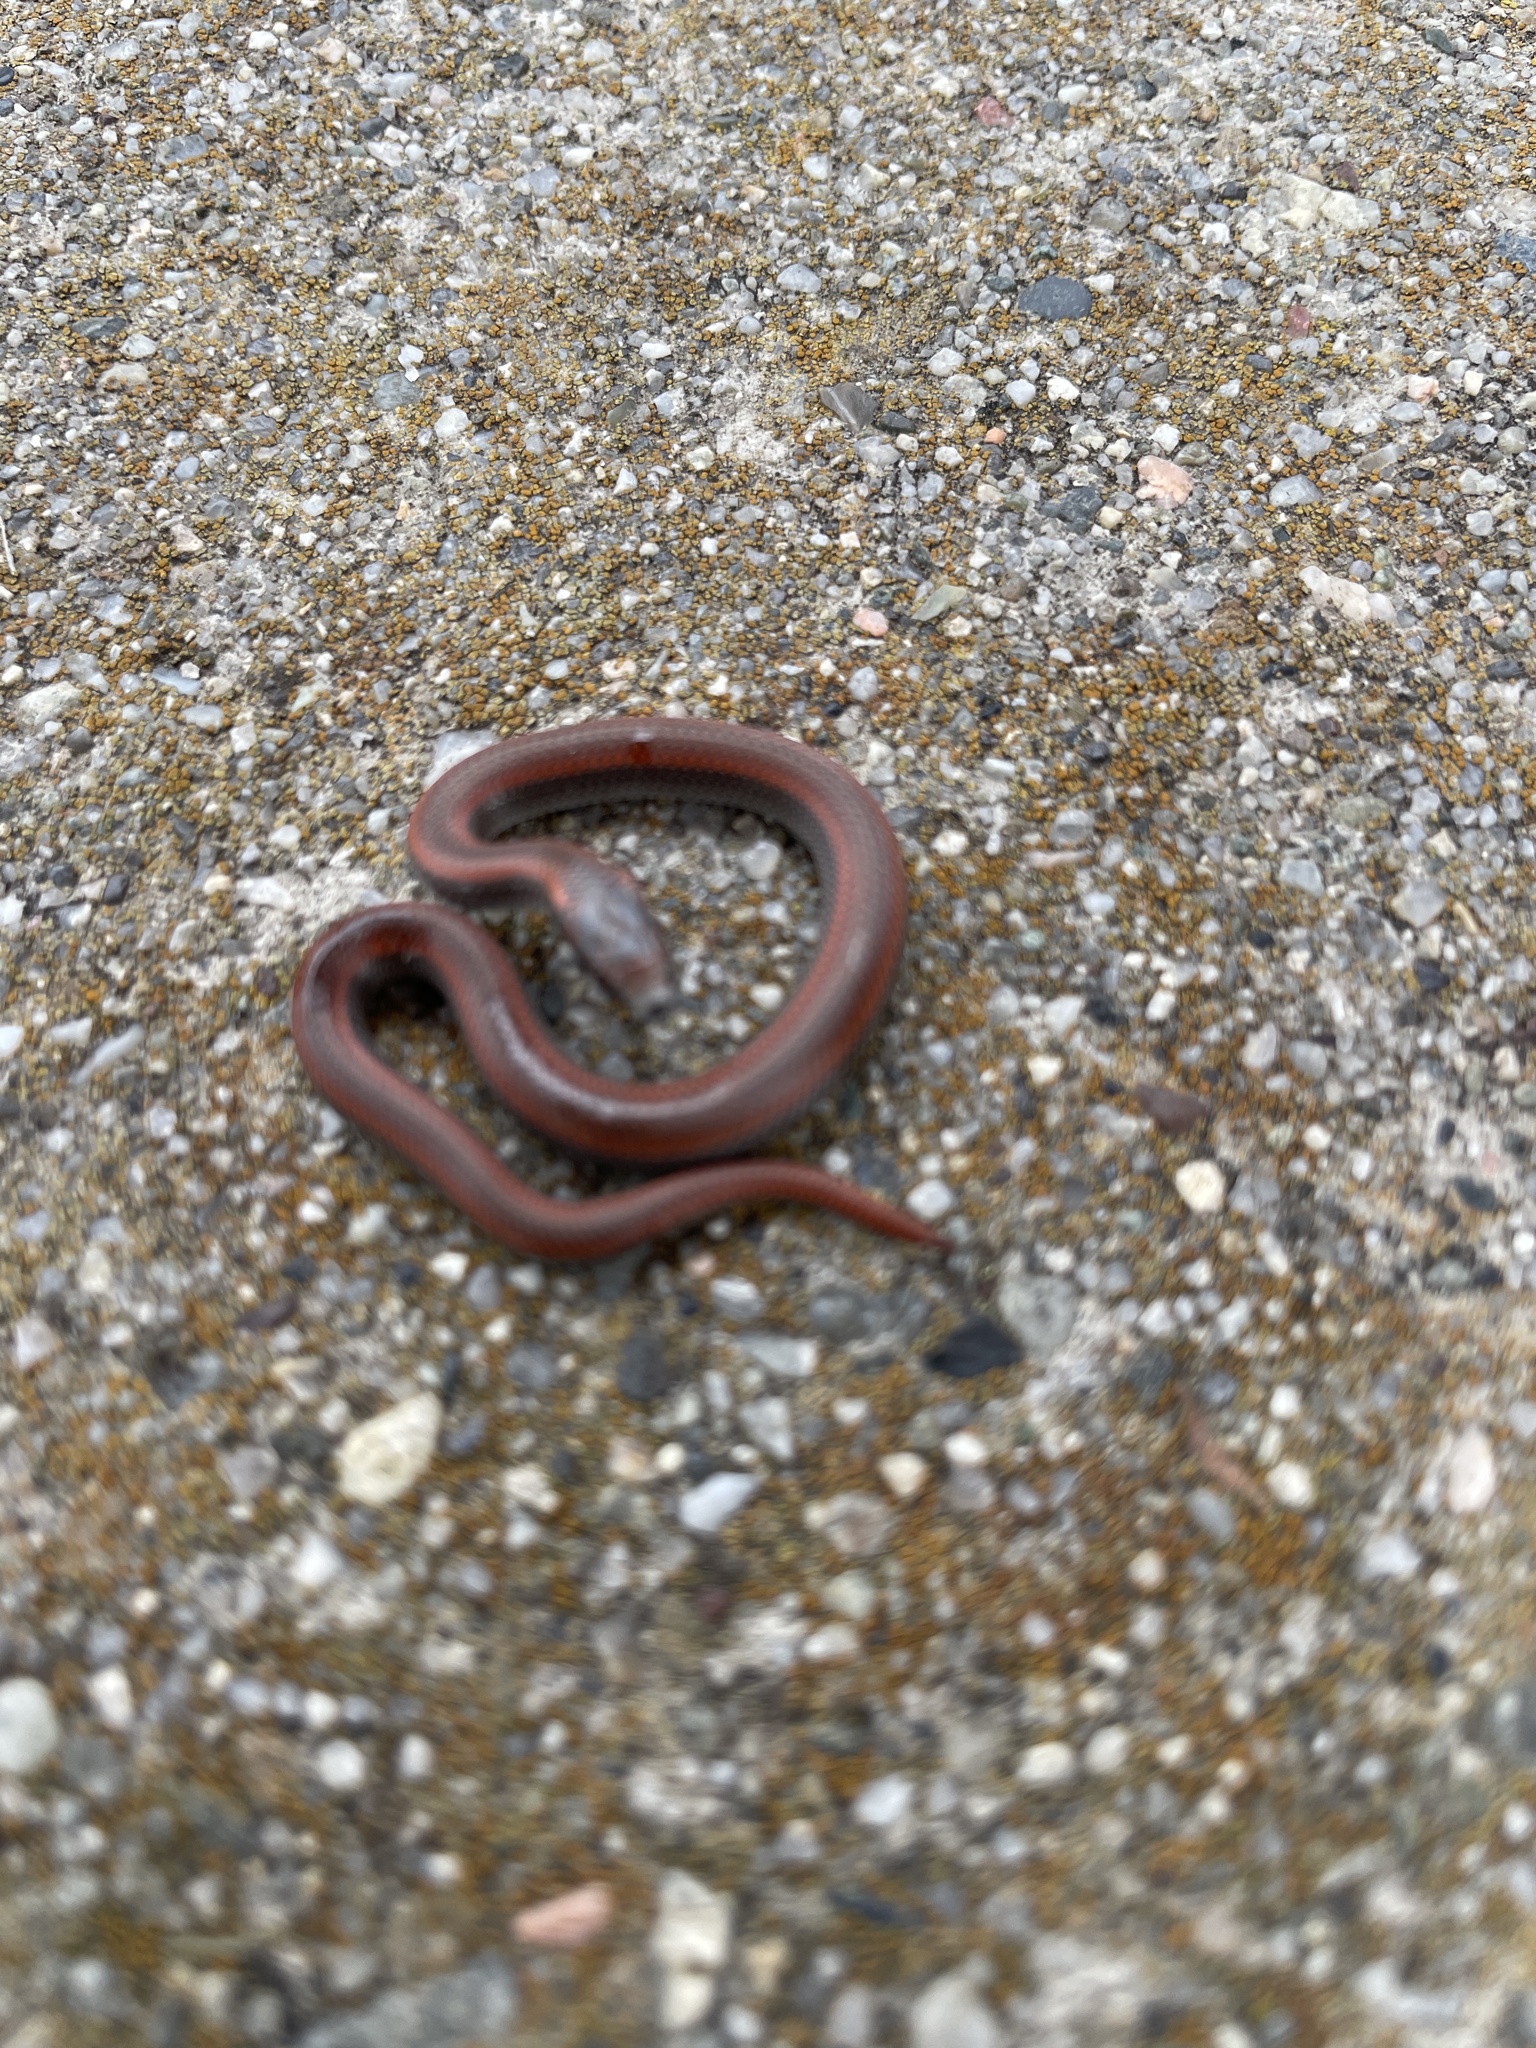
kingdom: Animalia
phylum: Chordata
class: Squamata
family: Colubridae
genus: Contia
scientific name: Contia tenuis
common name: Sharptail snake
